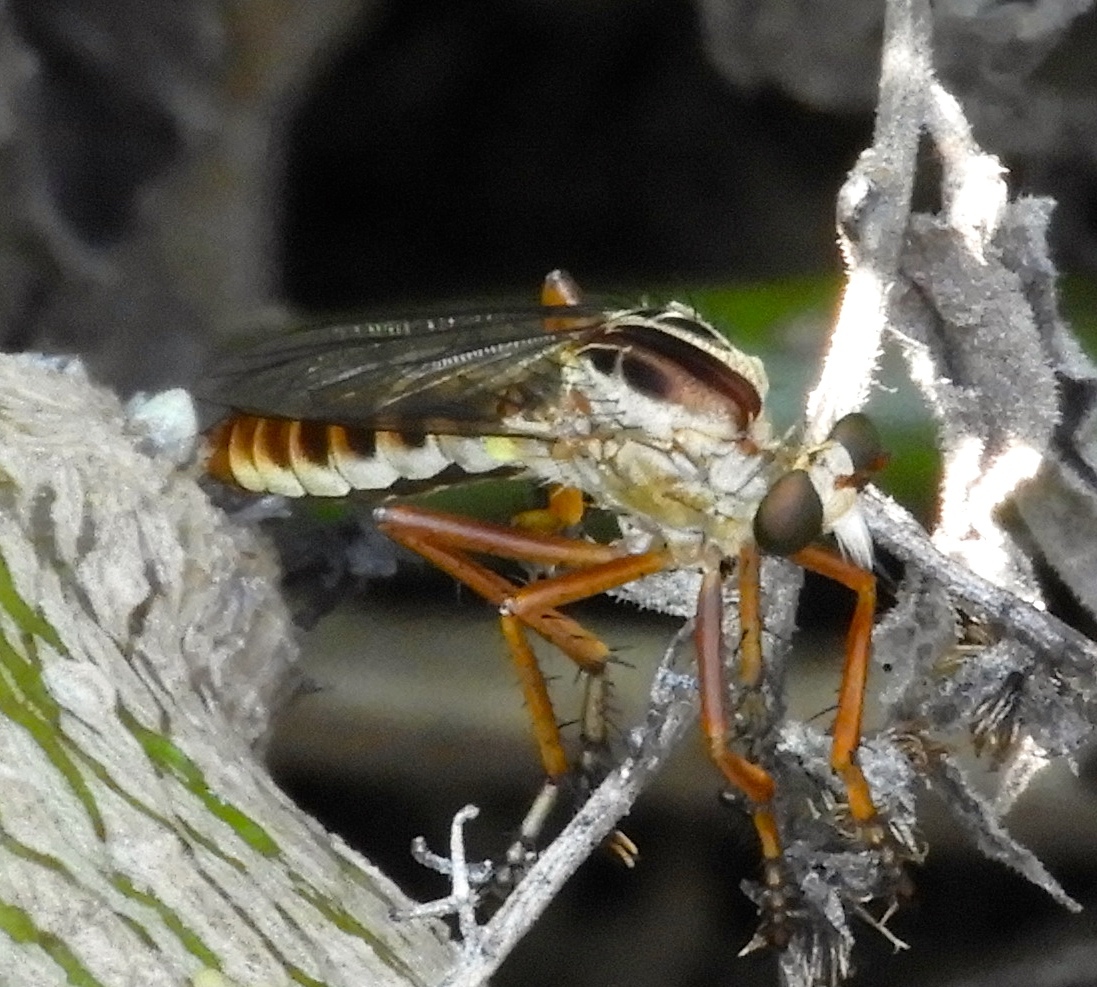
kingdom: Animalia
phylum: Arthropoda
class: Insecta
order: Diptera
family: Asilidae
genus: Diogmites
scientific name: Diogmites
